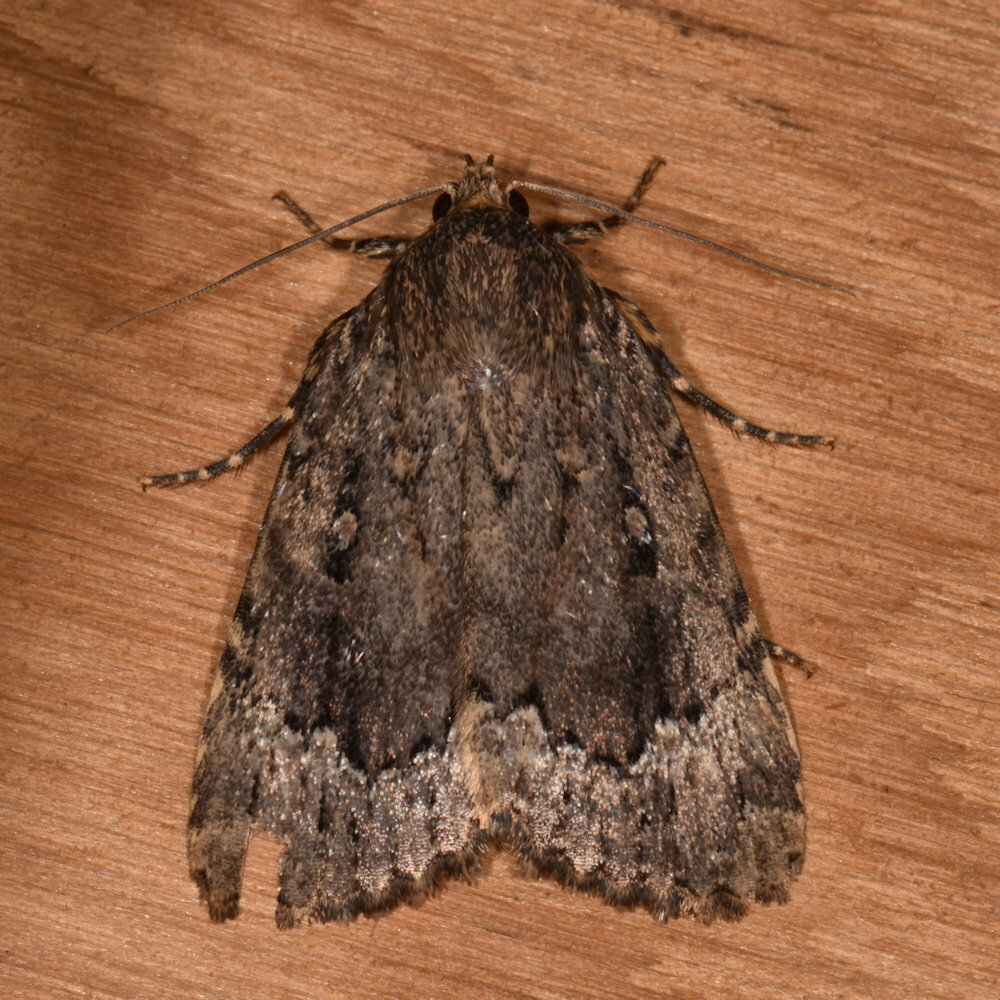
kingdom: Animalia
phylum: Arthropoda
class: Insecta
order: Lepidoptera
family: Noctuidae
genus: Amphipyra
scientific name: Amphipyra pyramidoides
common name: American copper underwing
